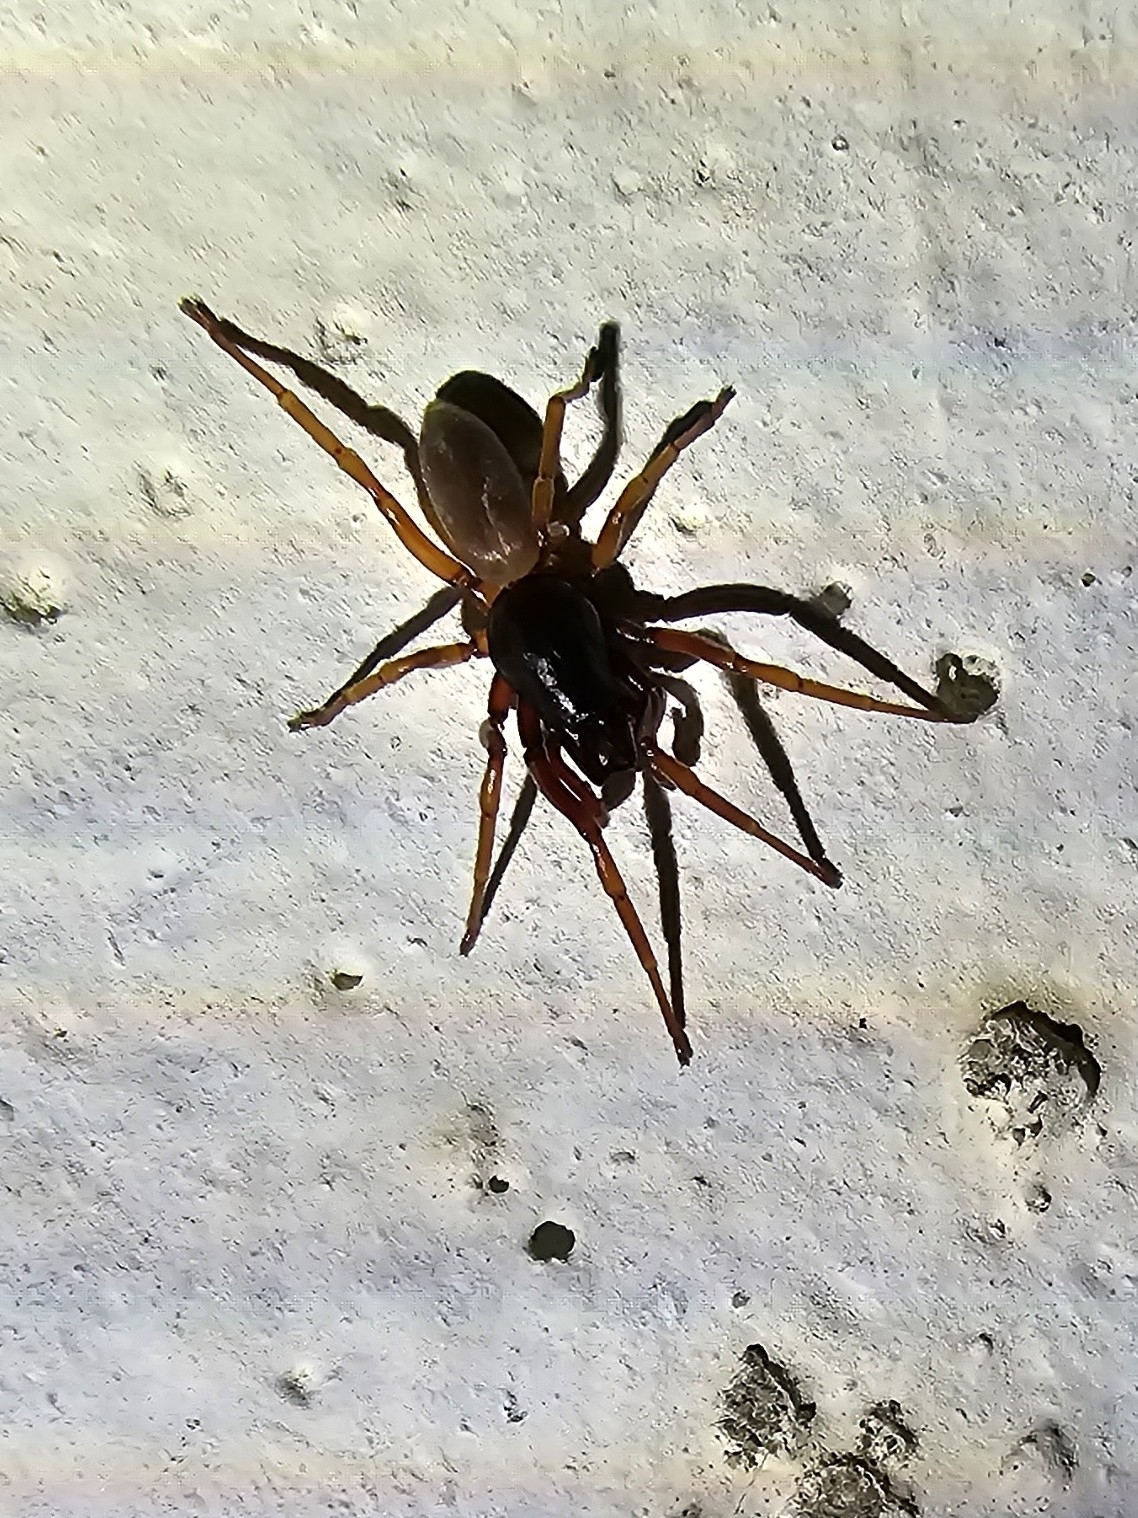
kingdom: Animalia
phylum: Arthropoda
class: Arachnida
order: Araneae
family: Dysderidae
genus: Harpactea
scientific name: Harpactea rubicunda
